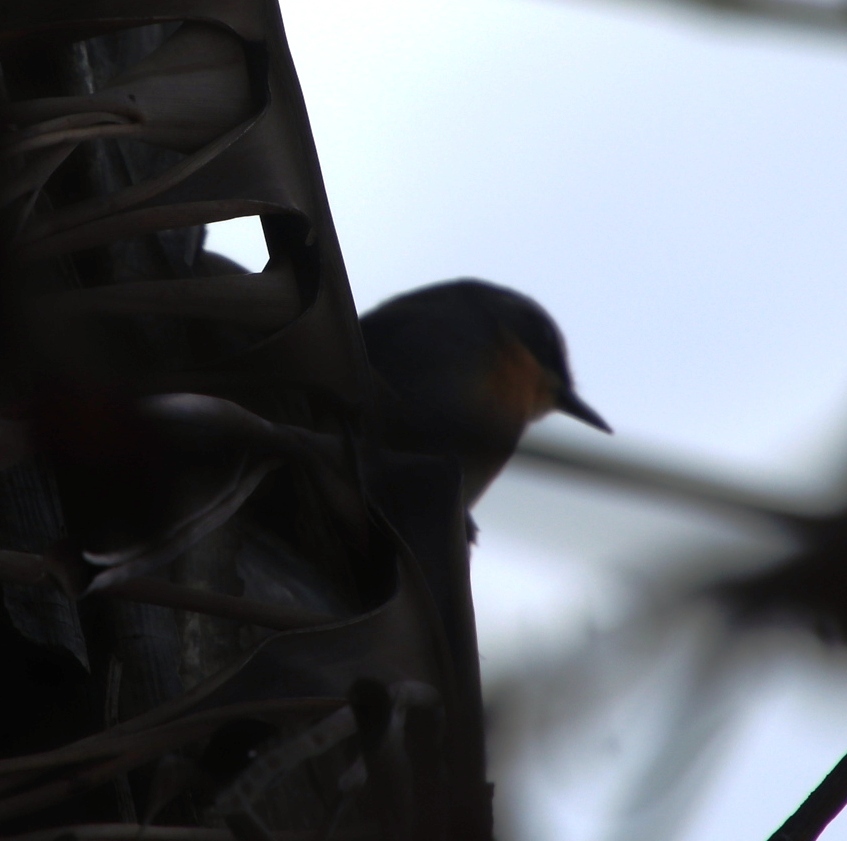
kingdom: Animalia
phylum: Chordata
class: Aves
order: Passeriformes
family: Muscicapidae
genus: Cossypha
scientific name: Cossypha caffra
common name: Cape robin-chat
